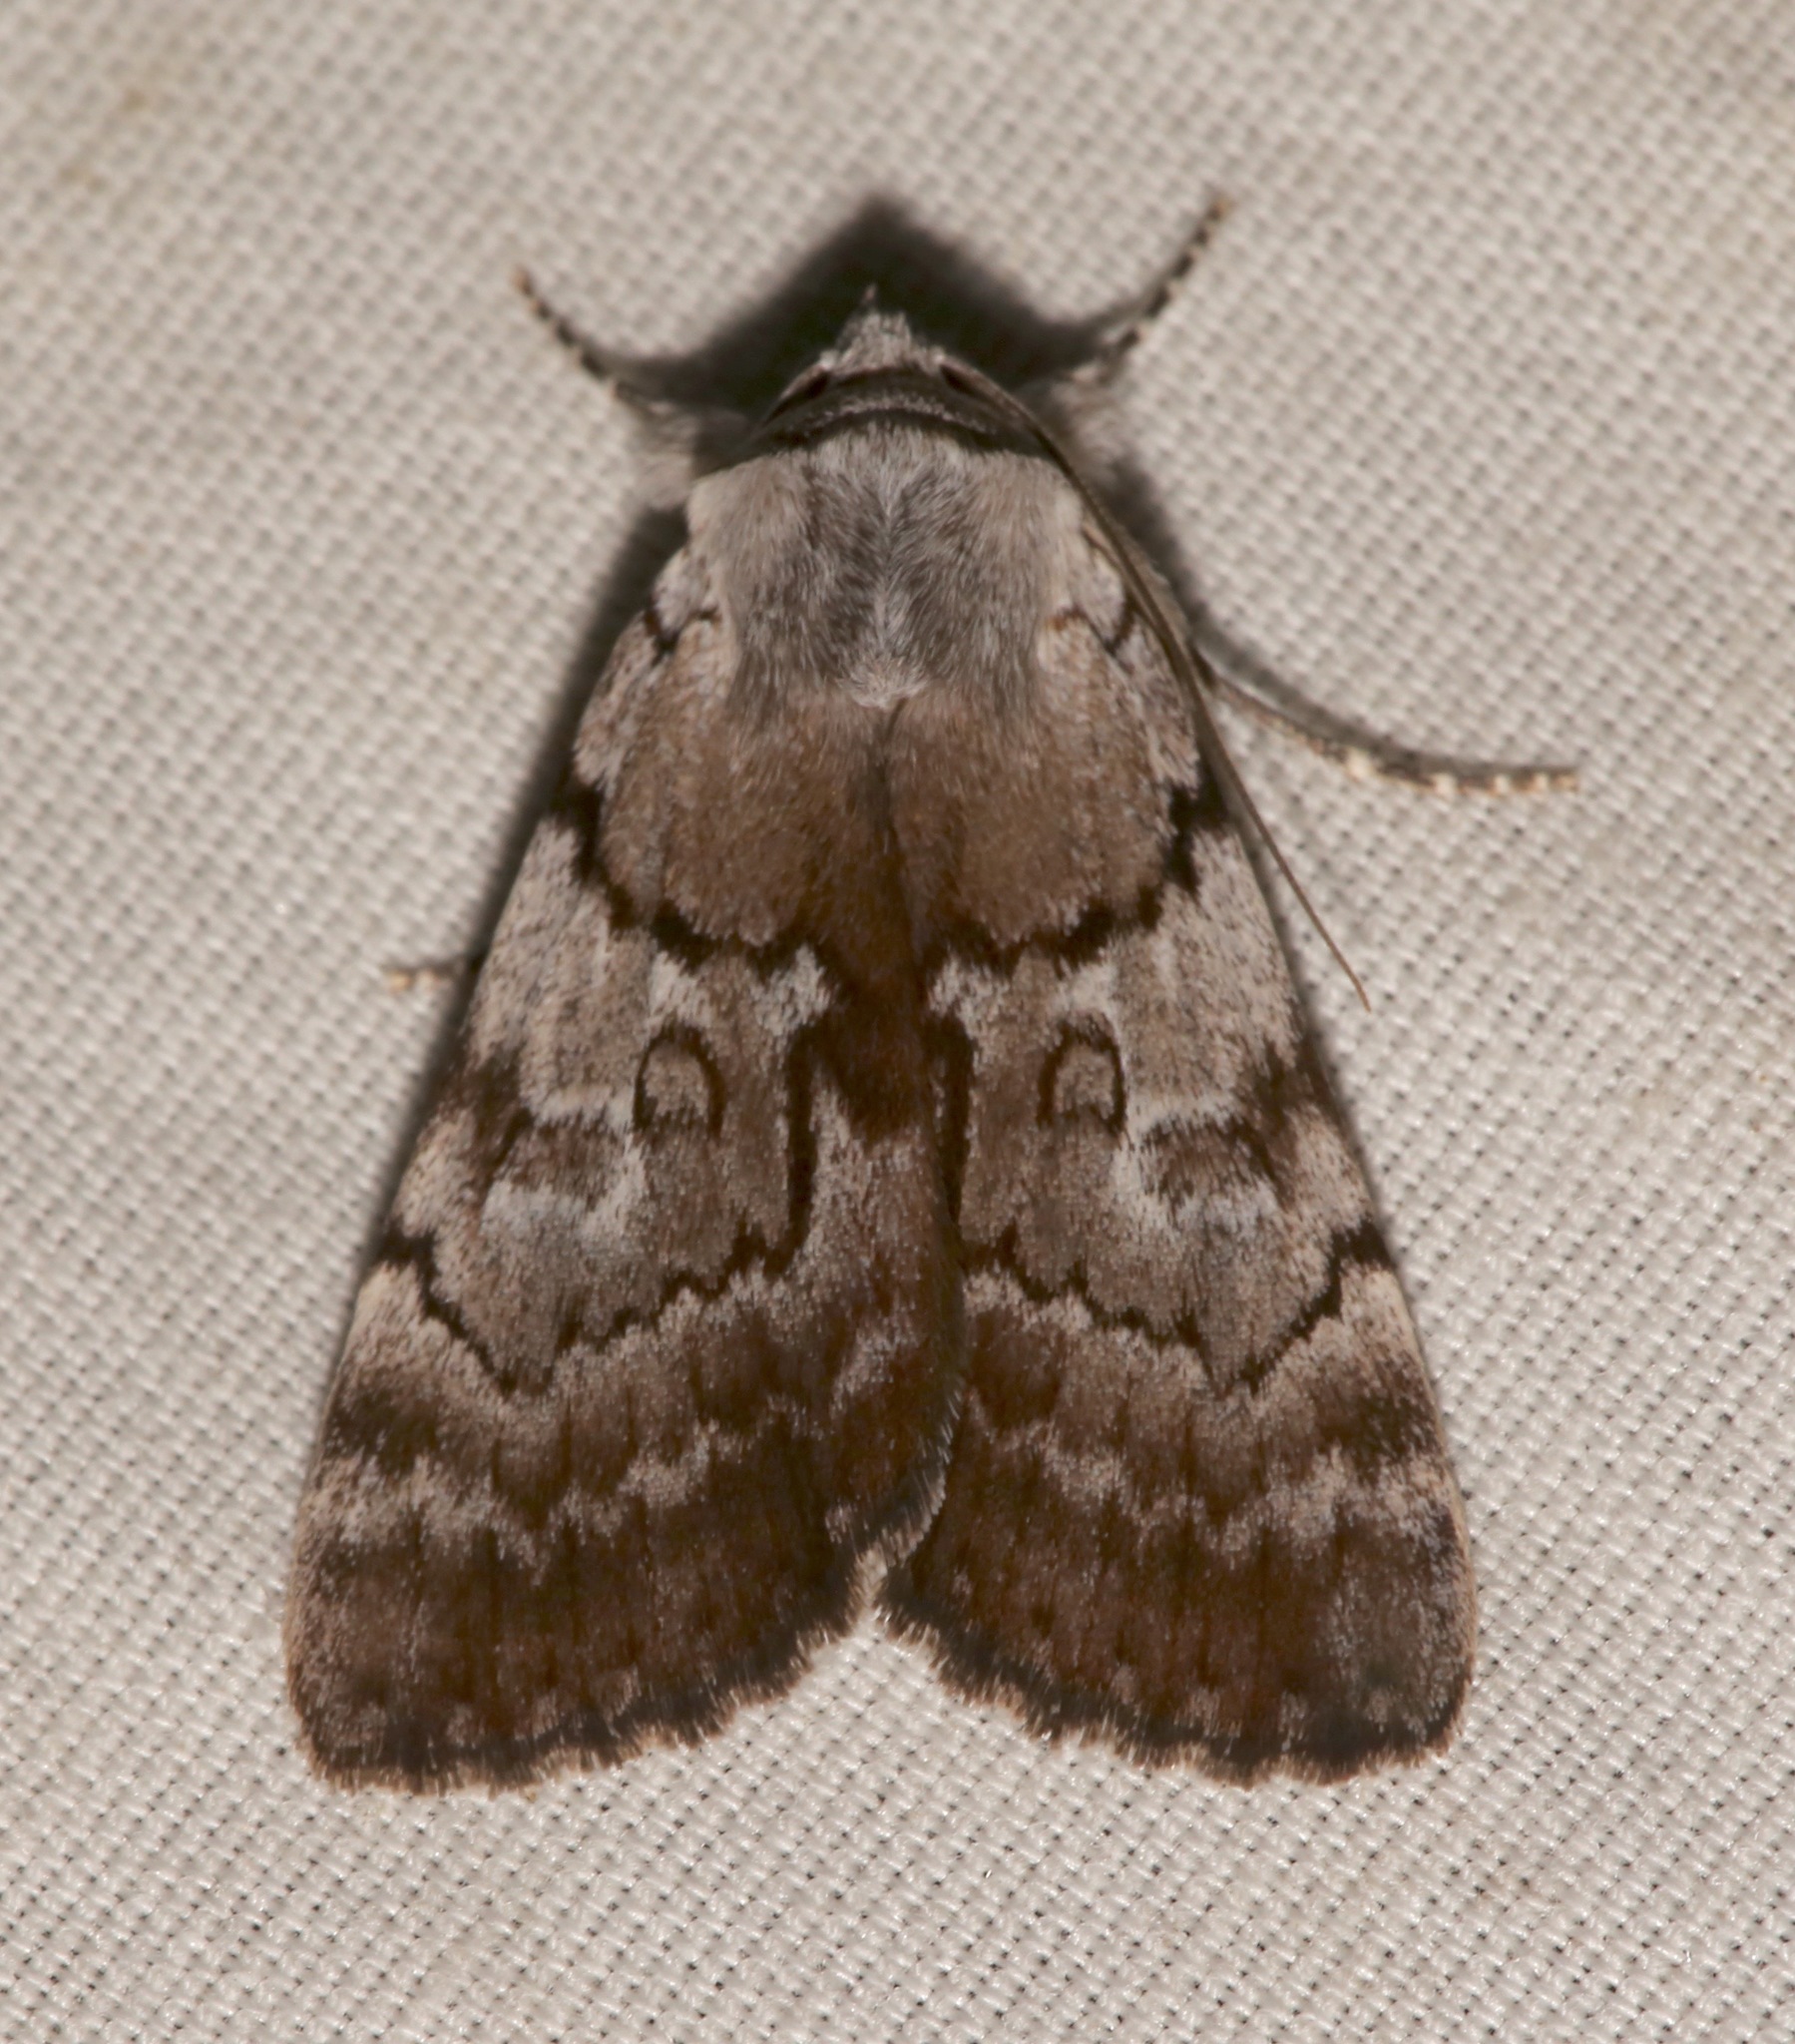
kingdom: Animalia
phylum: Arthropoda
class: Insecta
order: Lepidoptera
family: Erebidae
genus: Catocala
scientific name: Catocala sordida
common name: Sordid underwing
